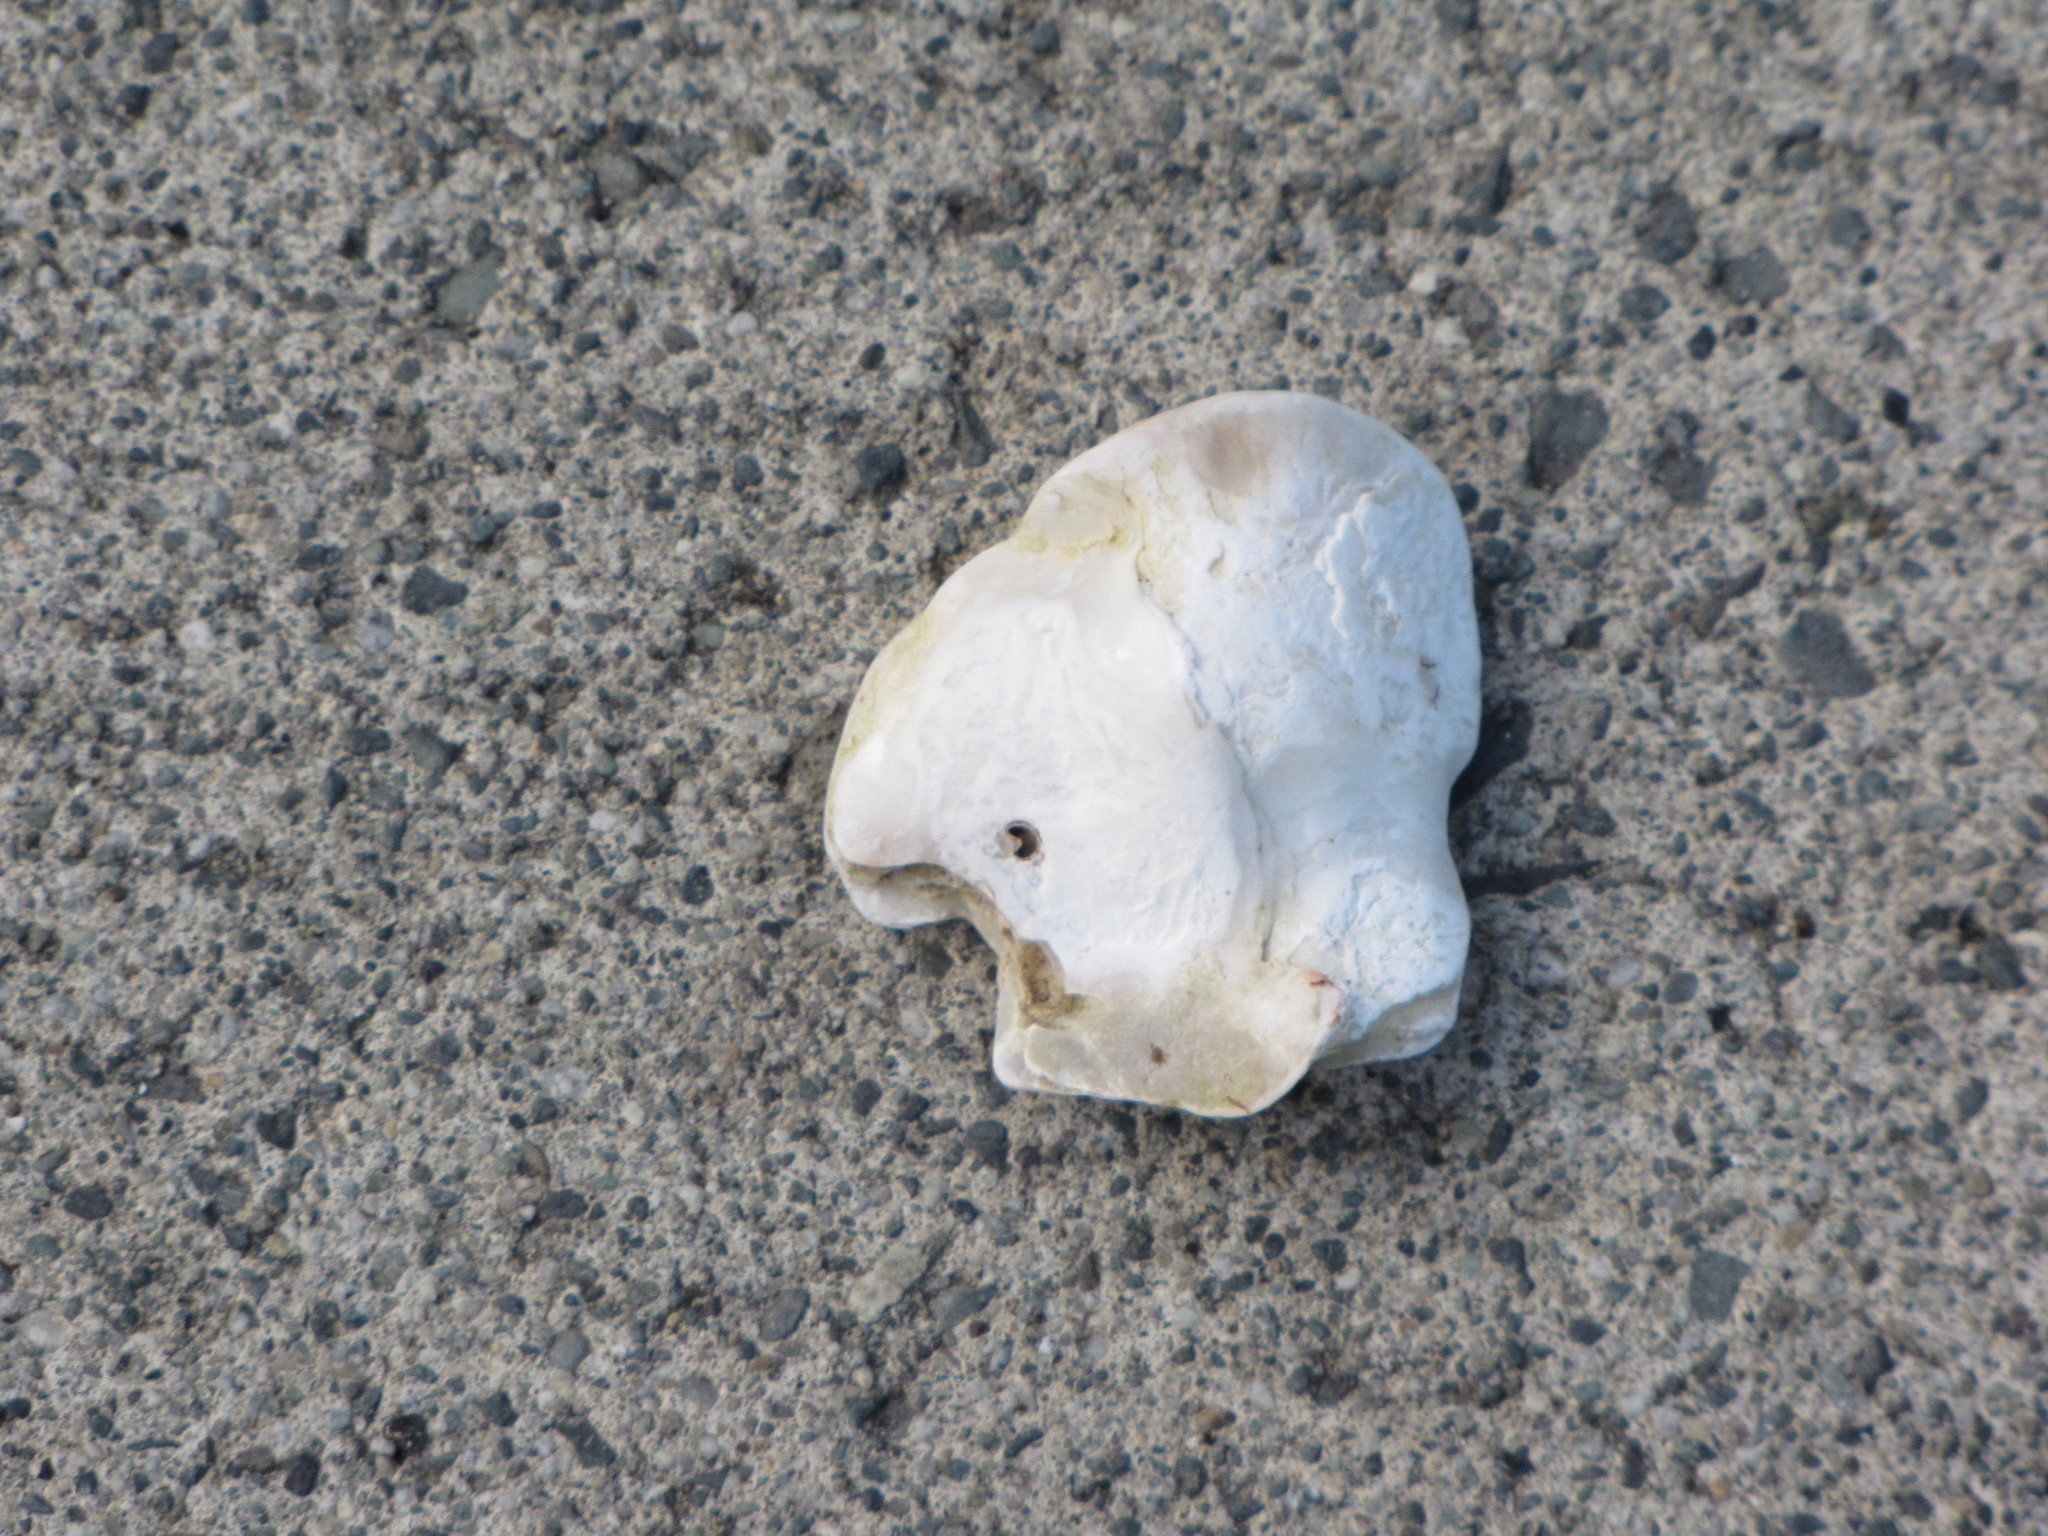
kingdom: Animalia
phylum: Mollusca
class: Bivalvia
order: Pectinida
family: Anomiidae
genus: Pododesmus
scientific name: Pododesmus macrochisma
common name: Alaska jingle
